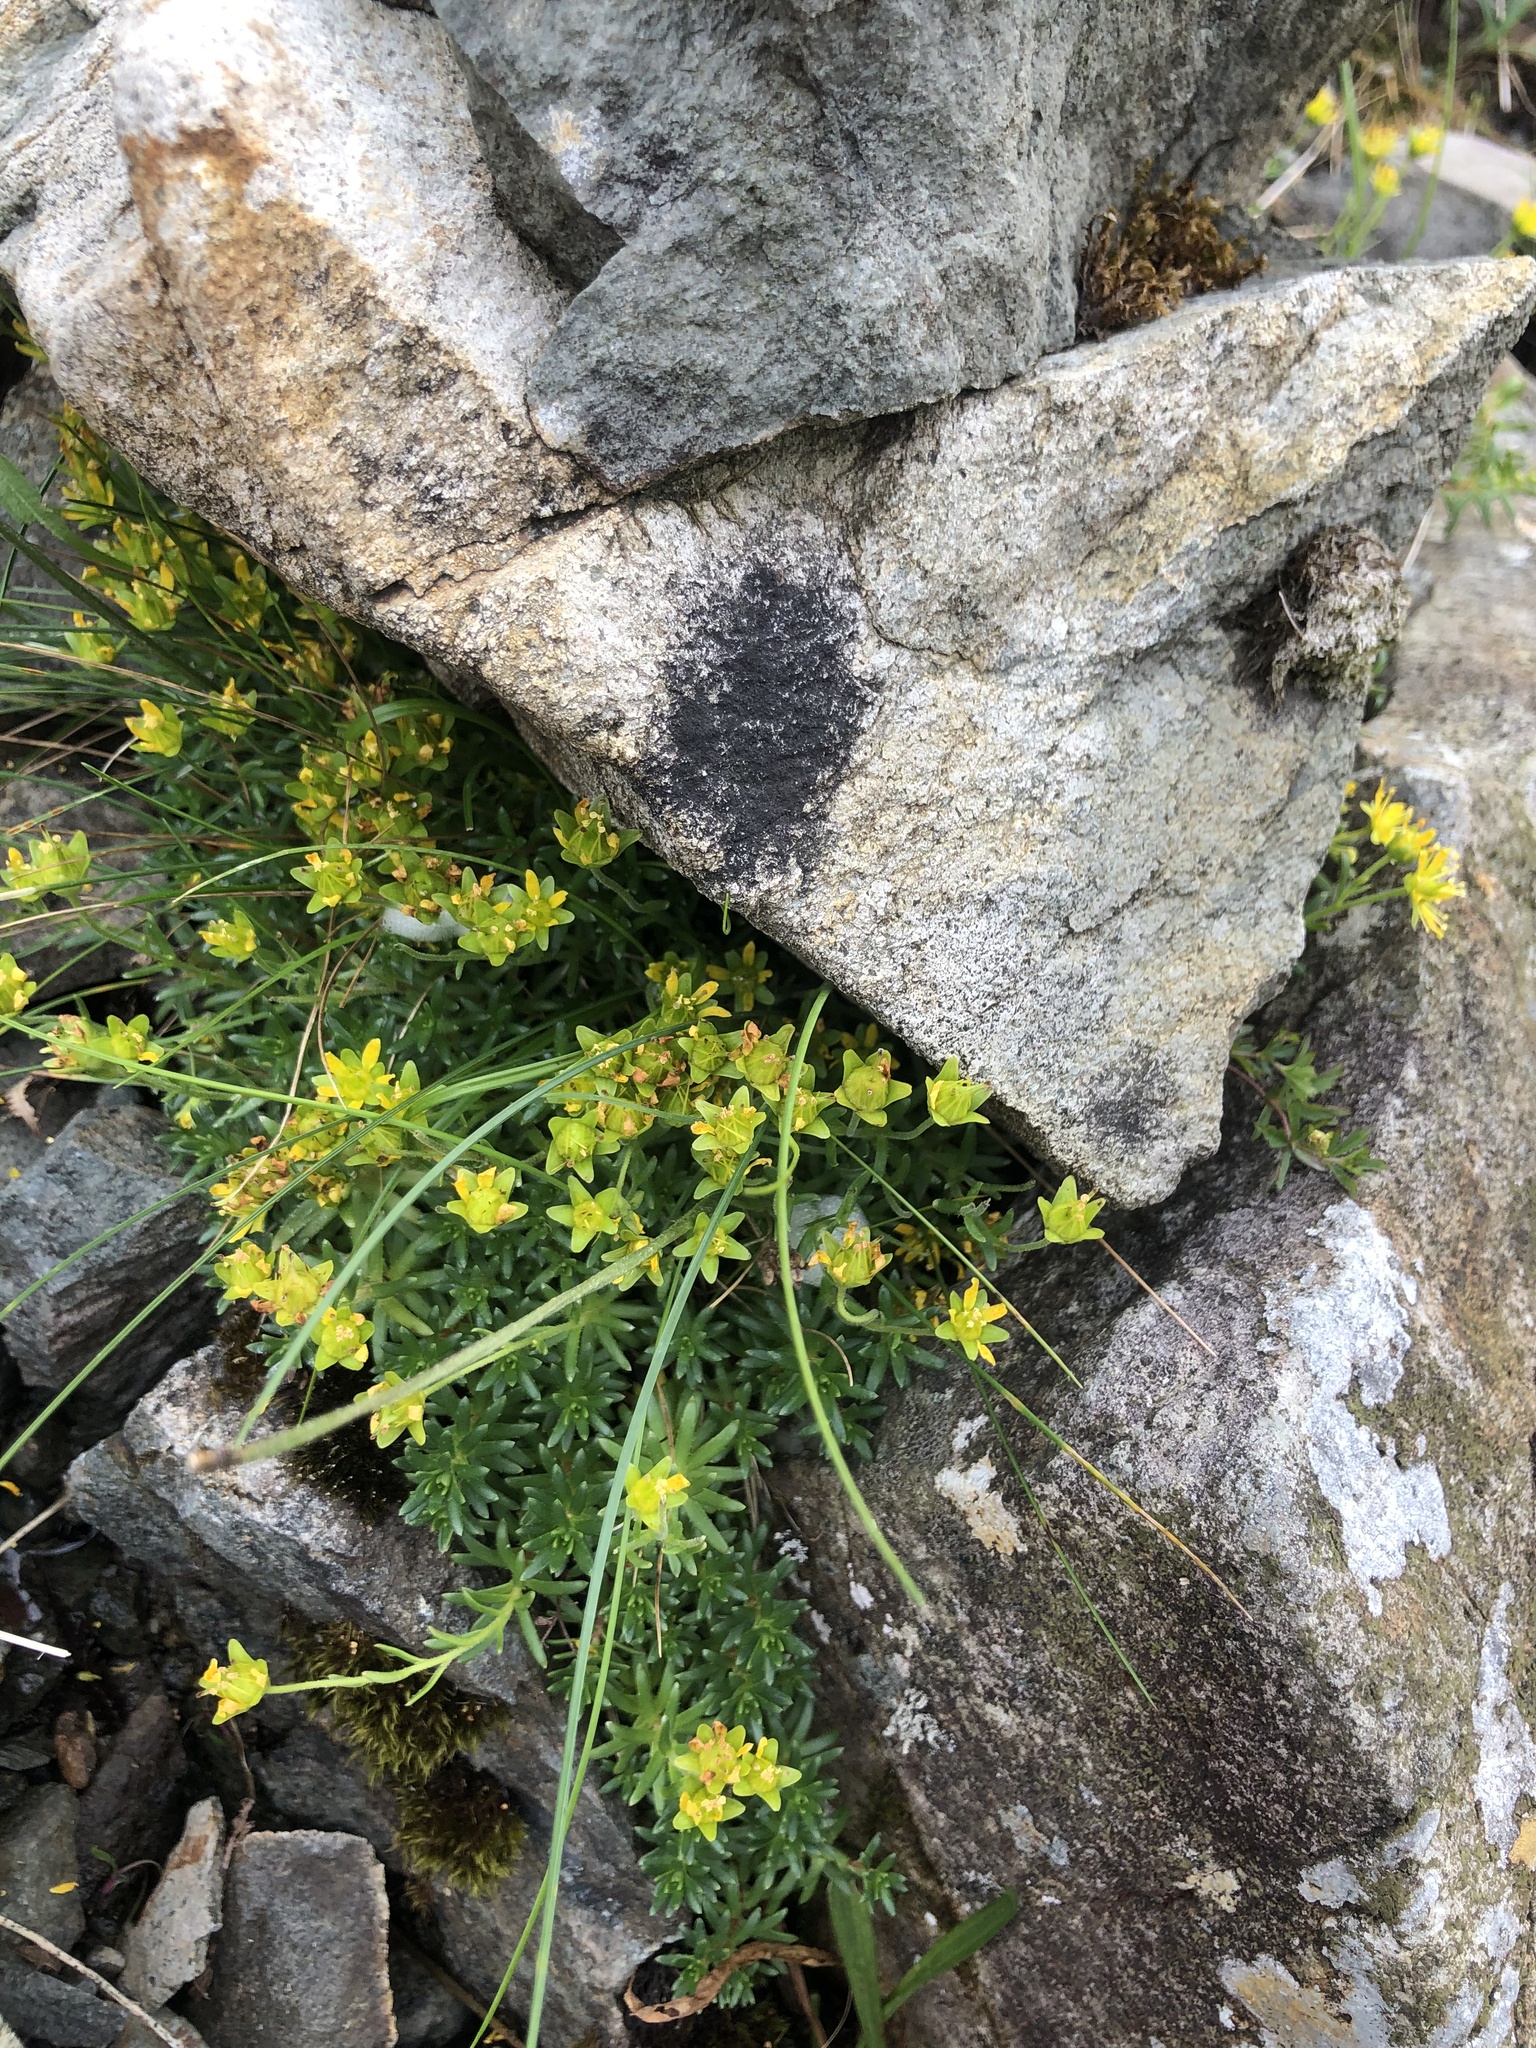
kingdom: Plantae
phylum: Tracheophyta
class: Magnoliopsida
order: Saxifragales
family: Saxifragaceae
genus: Saxifraga
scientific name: Saxifraga aizoides
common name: Yellow mountain saxifrage
